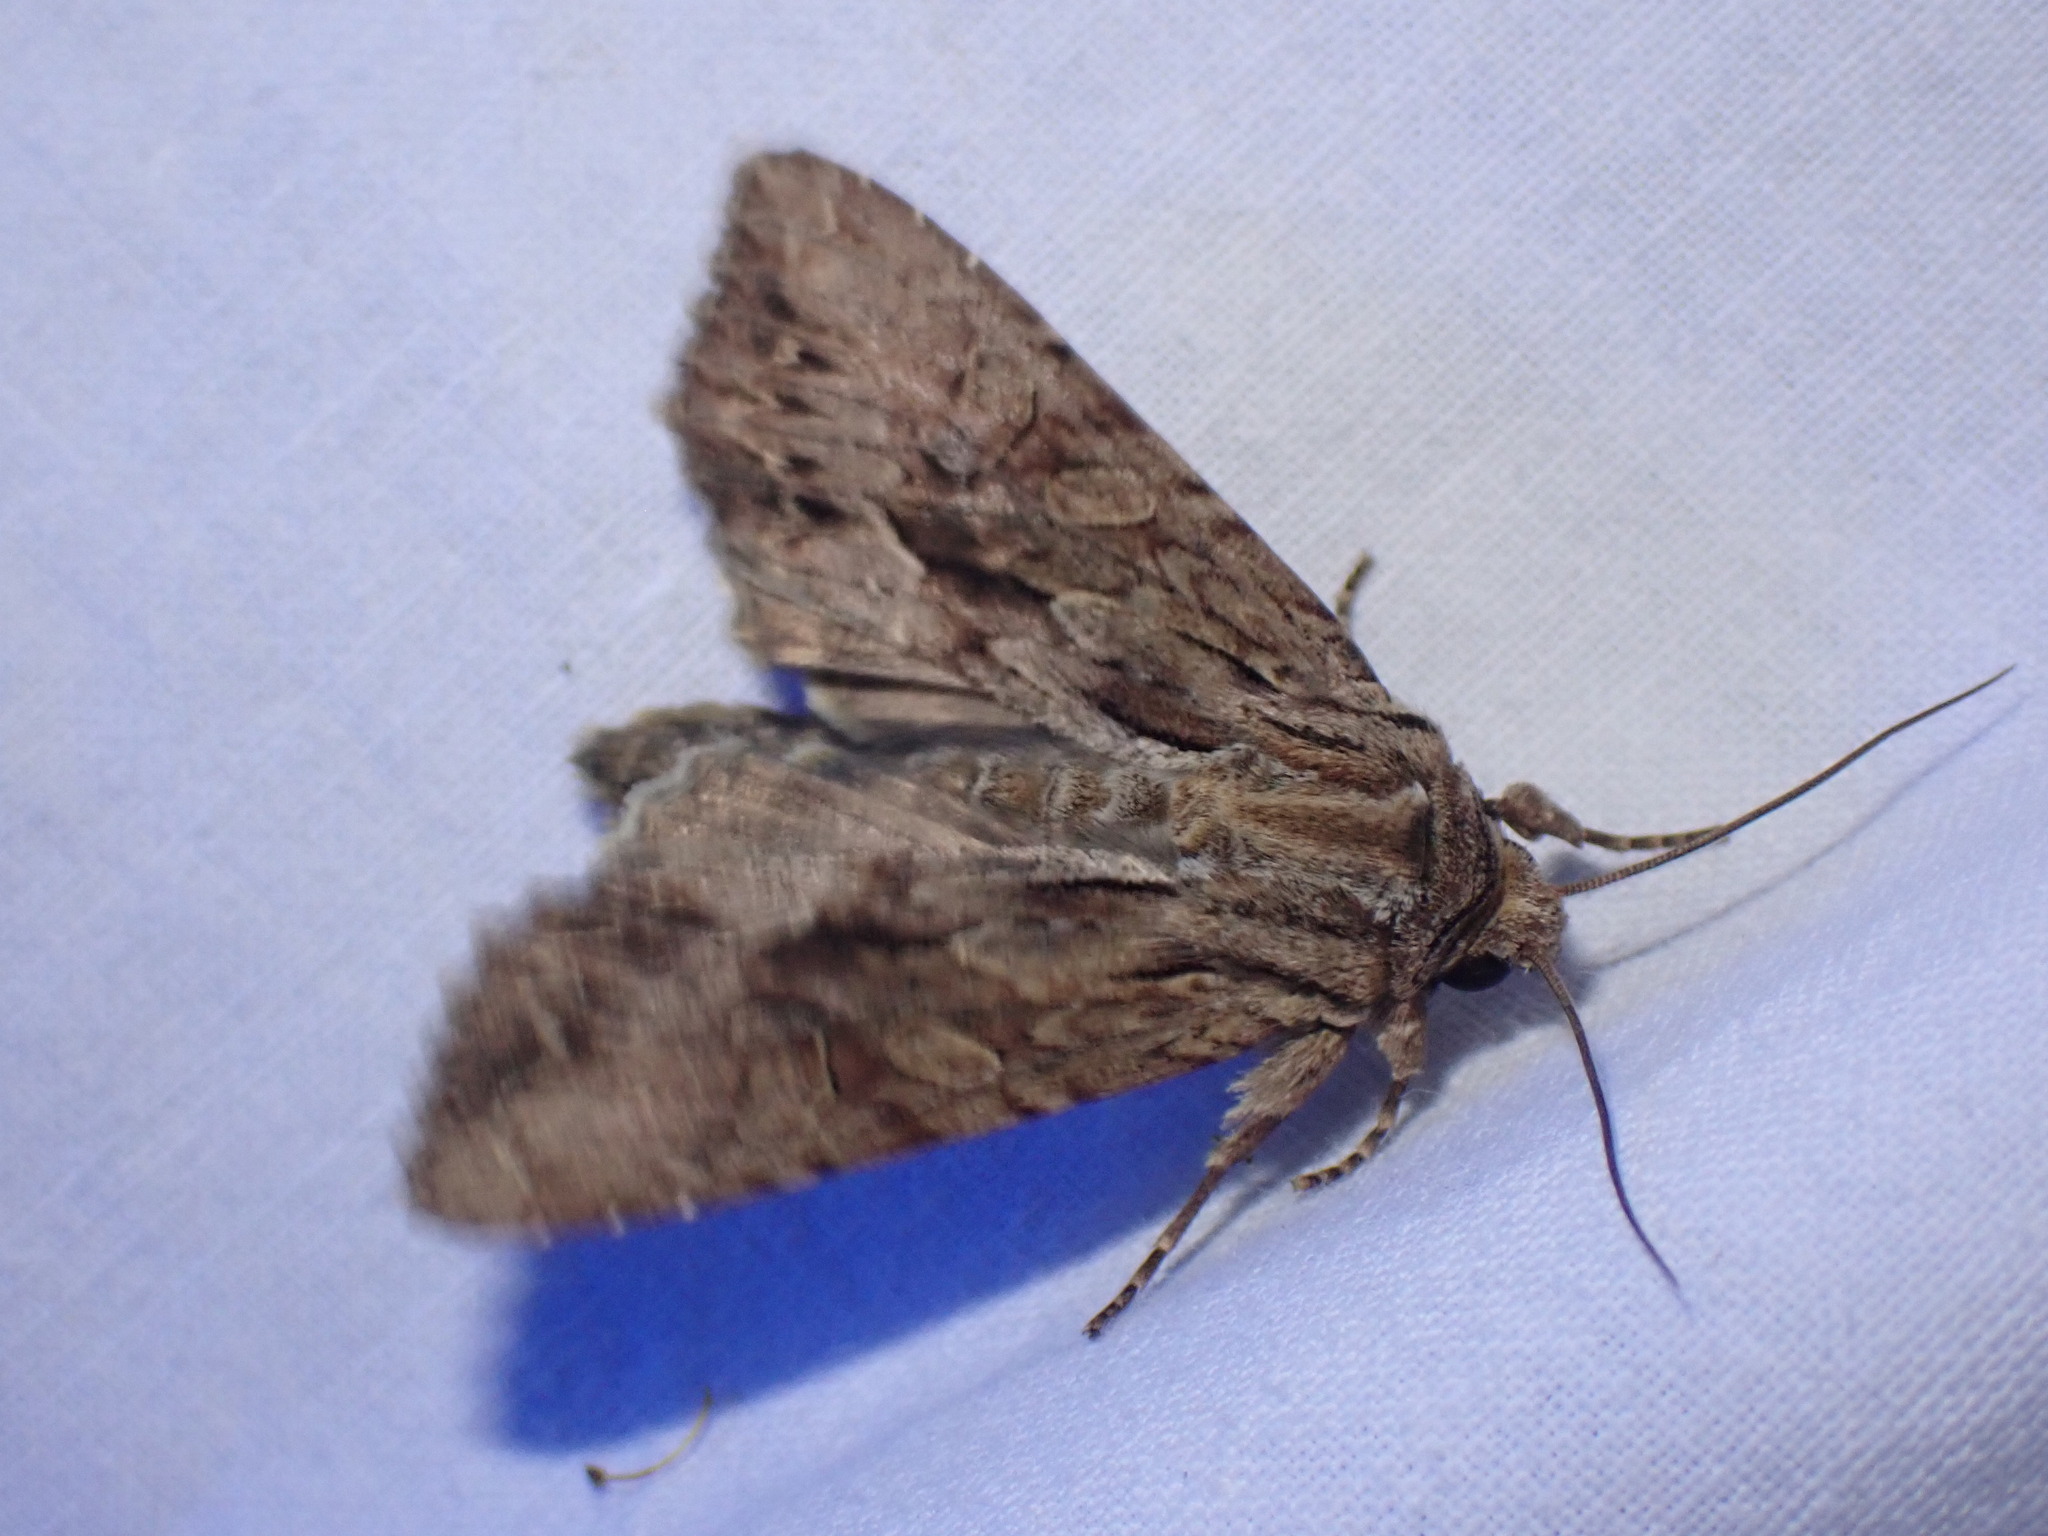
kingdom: Animalia
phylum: Arthropoda
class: Insecta
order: Lepidoptera
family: Noctuidae
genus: Apamea
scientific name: Apamea monoglypha
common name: Dark arches
